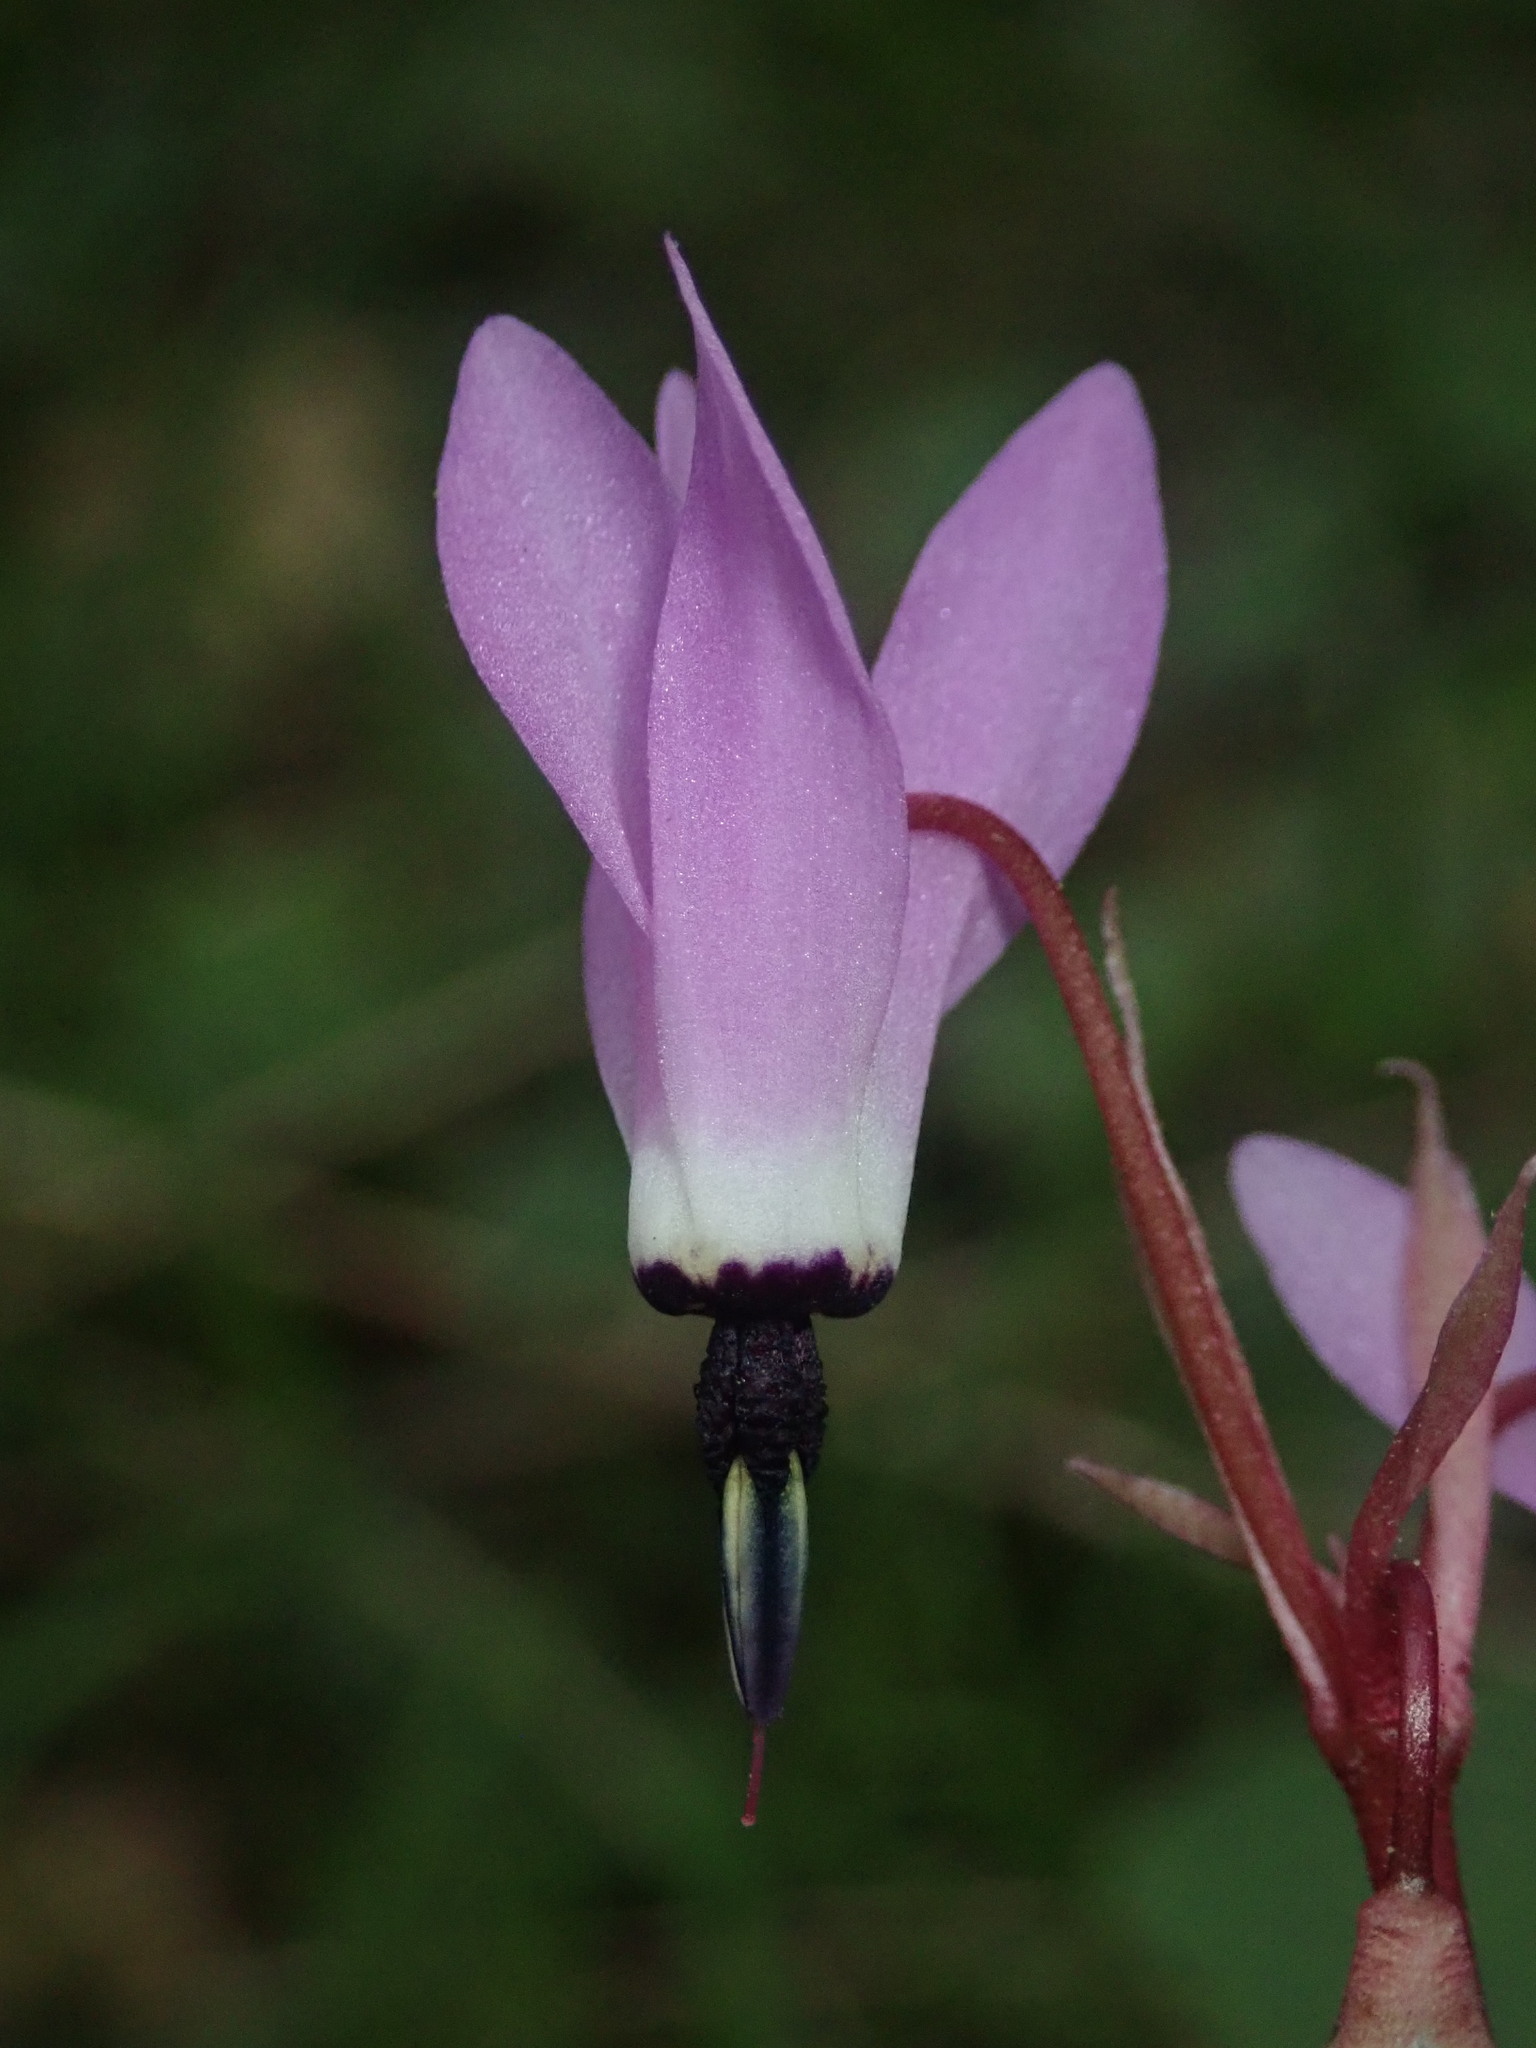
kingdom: Plantae
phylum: Tracheophyta
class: Magnoliopsida
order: Ericales
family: Primulaceae
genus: Dodecatheon
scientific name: Dodecatheon hendersonii
